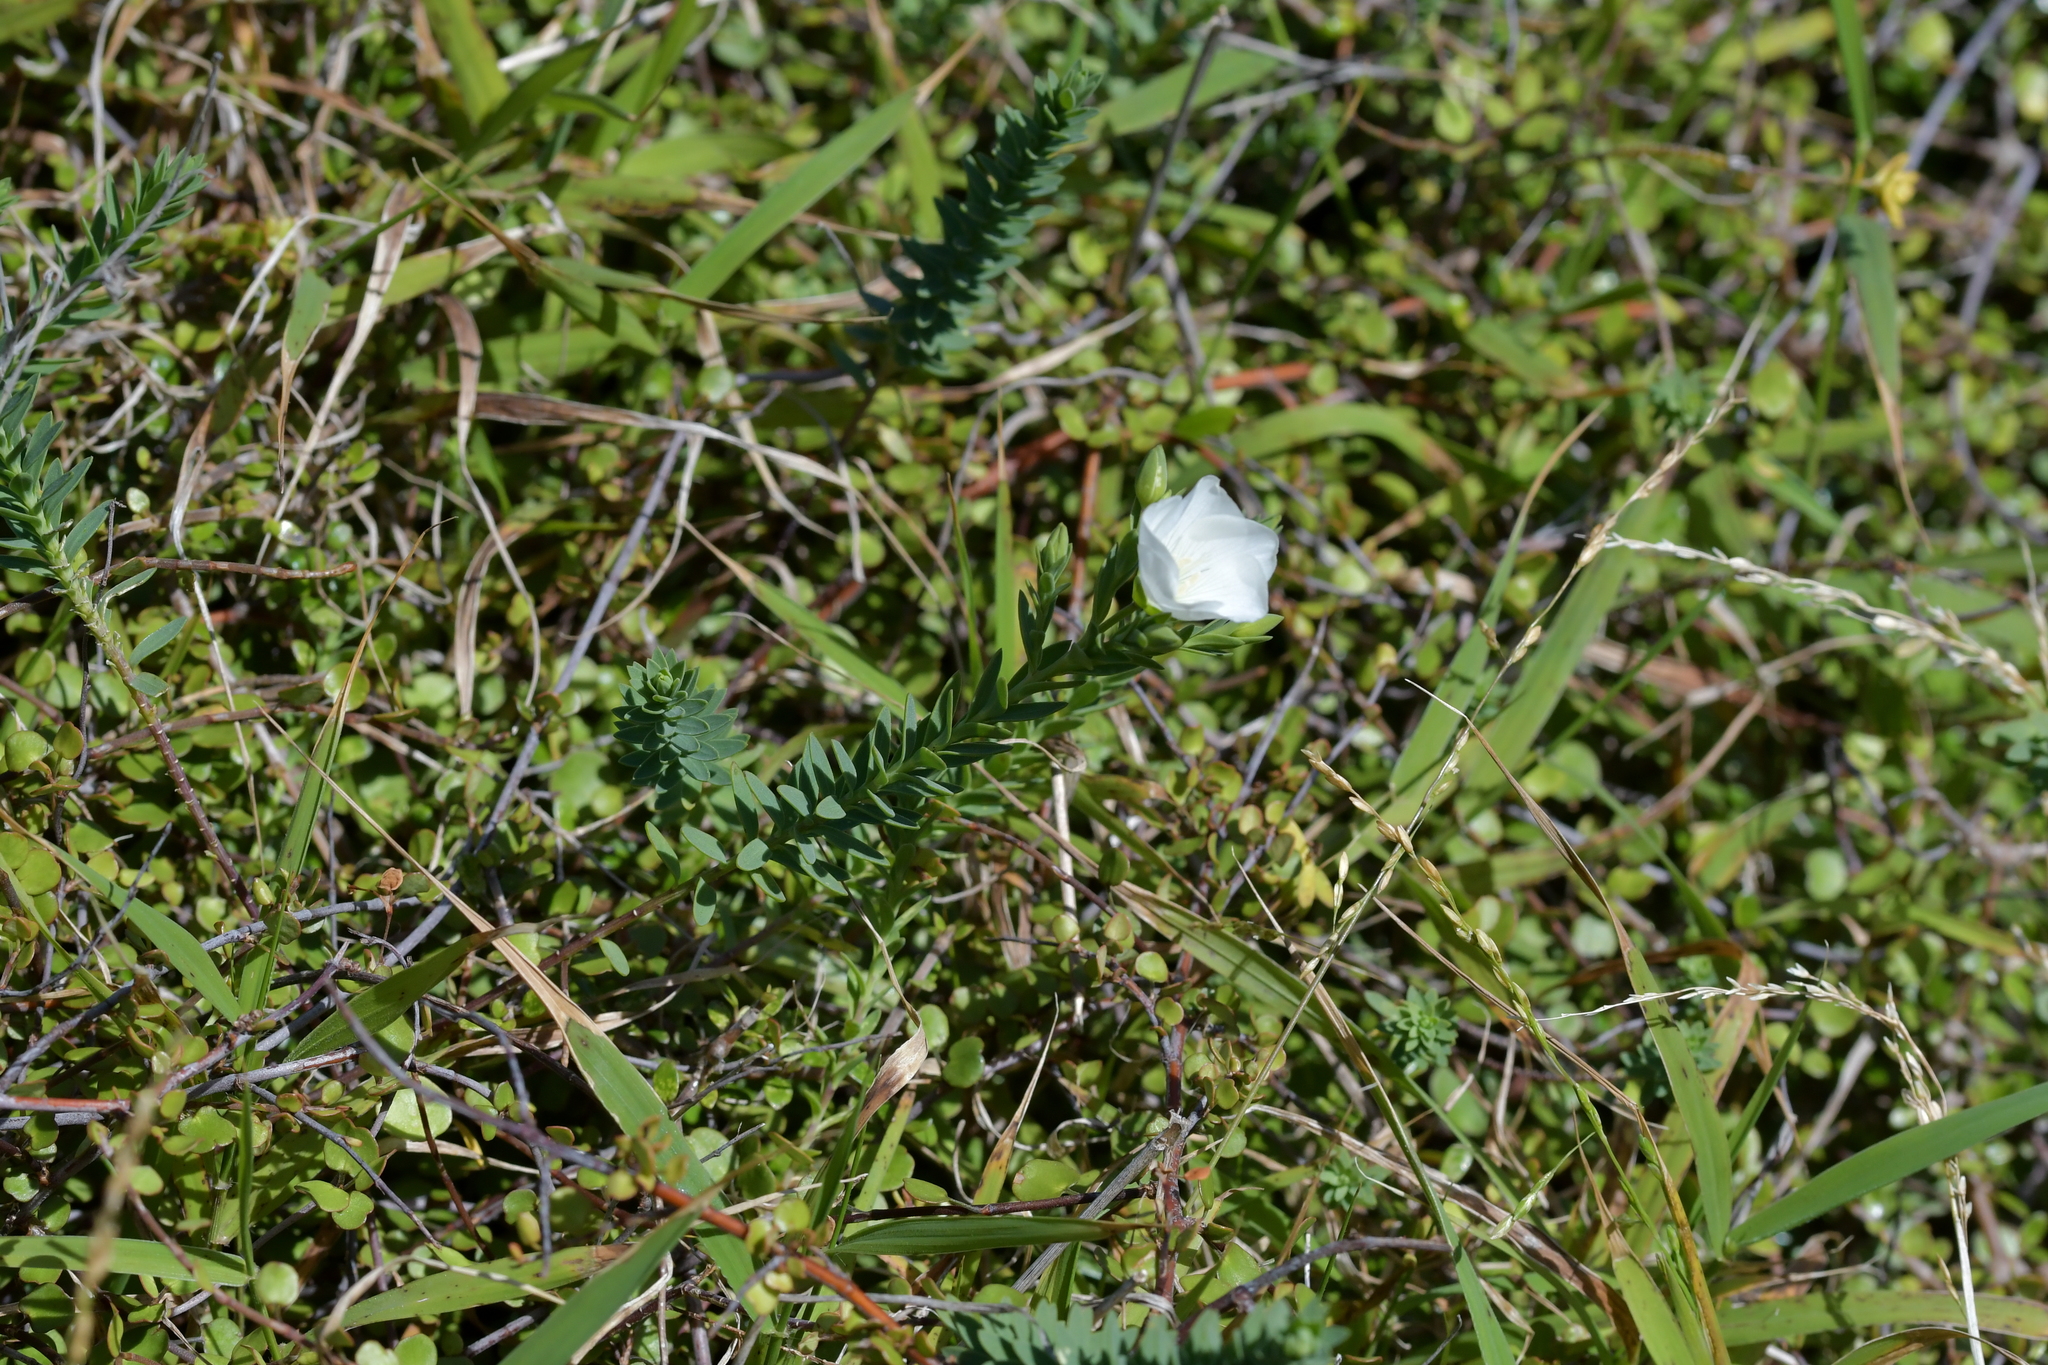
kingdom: Plantae
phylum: Tracheophyta
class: Magnoliopsida
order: Malpighiales
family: Linaceae
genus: Linum
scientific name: Linum monogynum
